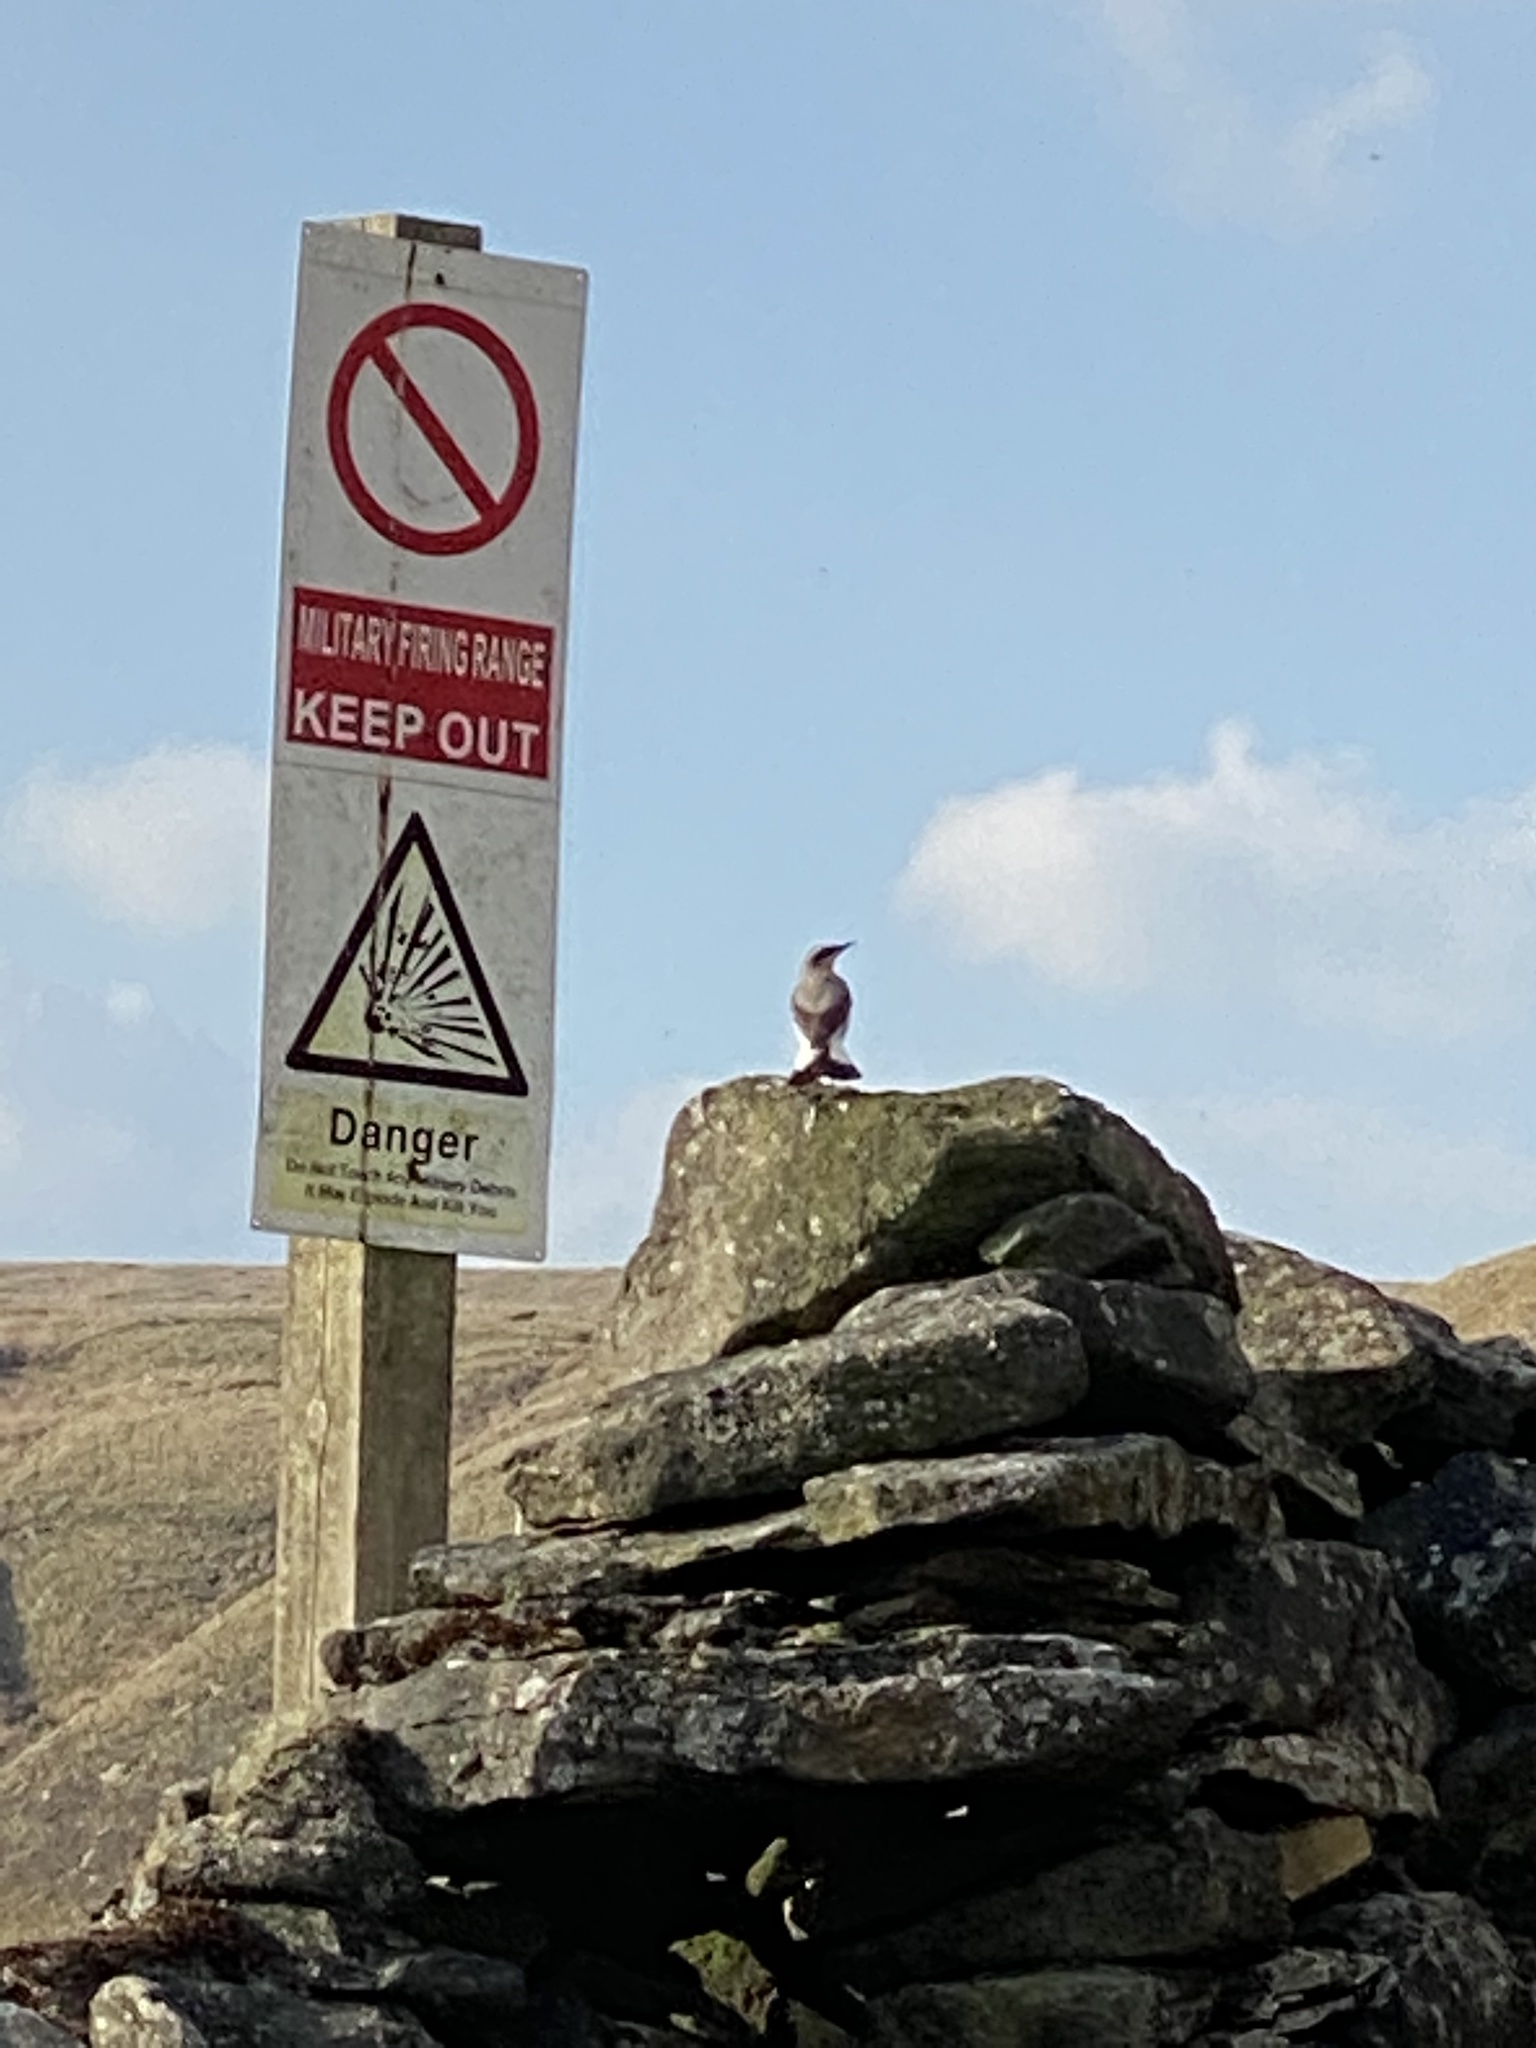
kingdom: Animalia
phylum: Chordata
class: Aves
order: Passeriformes
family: Muscicapidae
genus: Oenanthe
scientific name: Oenanthe oenanthe
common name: Northern wheatear
